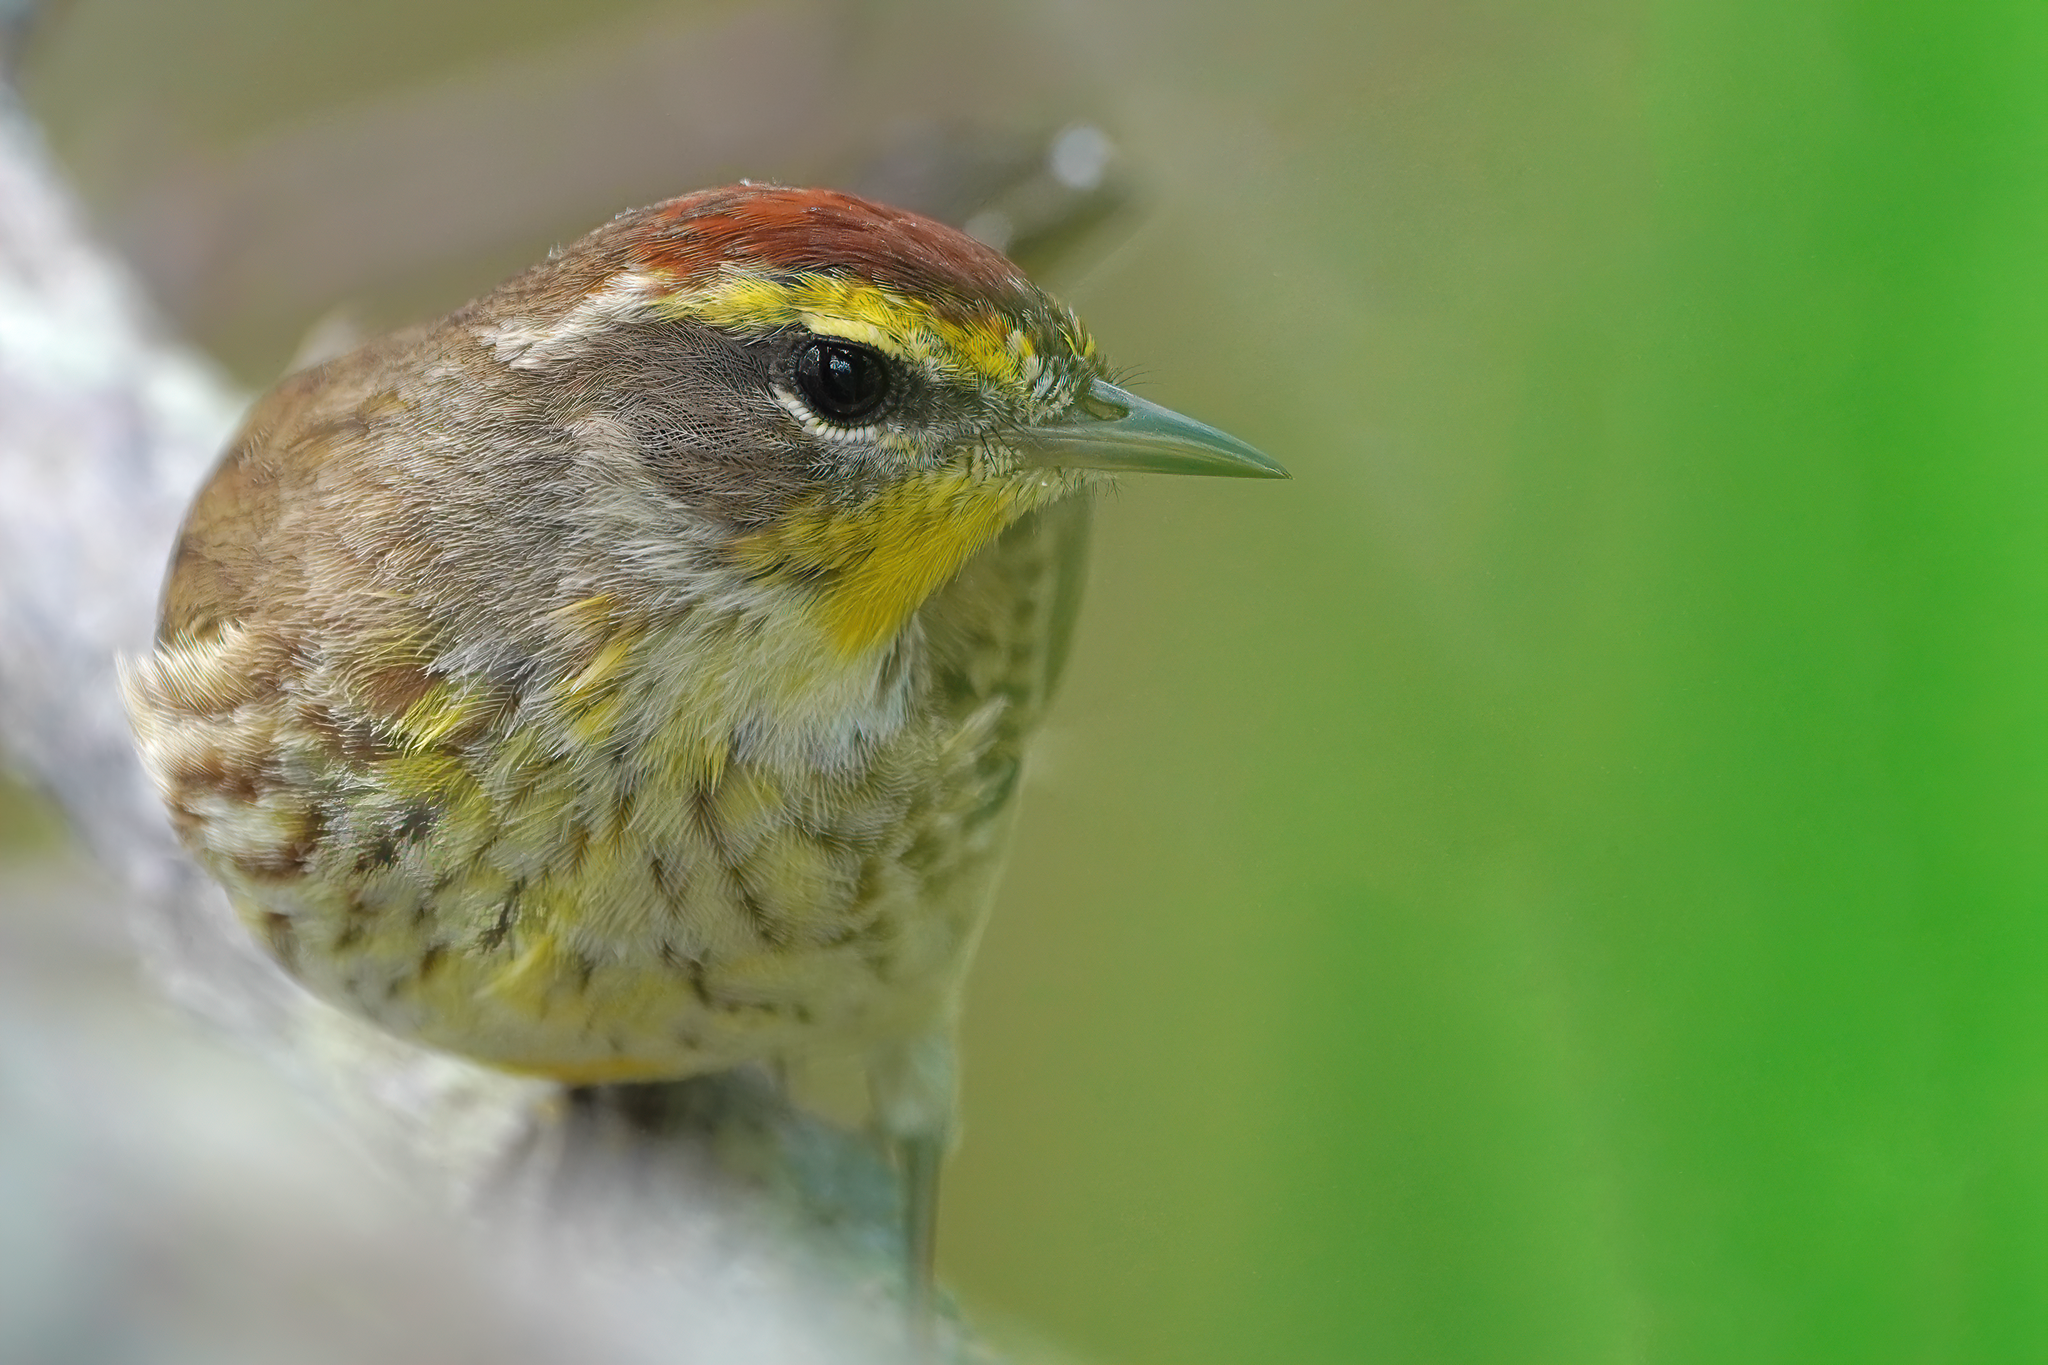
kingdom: Animalia
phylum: Chordata
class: Aves
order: Passeriformes
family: Parulidae
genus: Setophaga
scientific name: Setophaga palmarum
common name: Palm warbler
